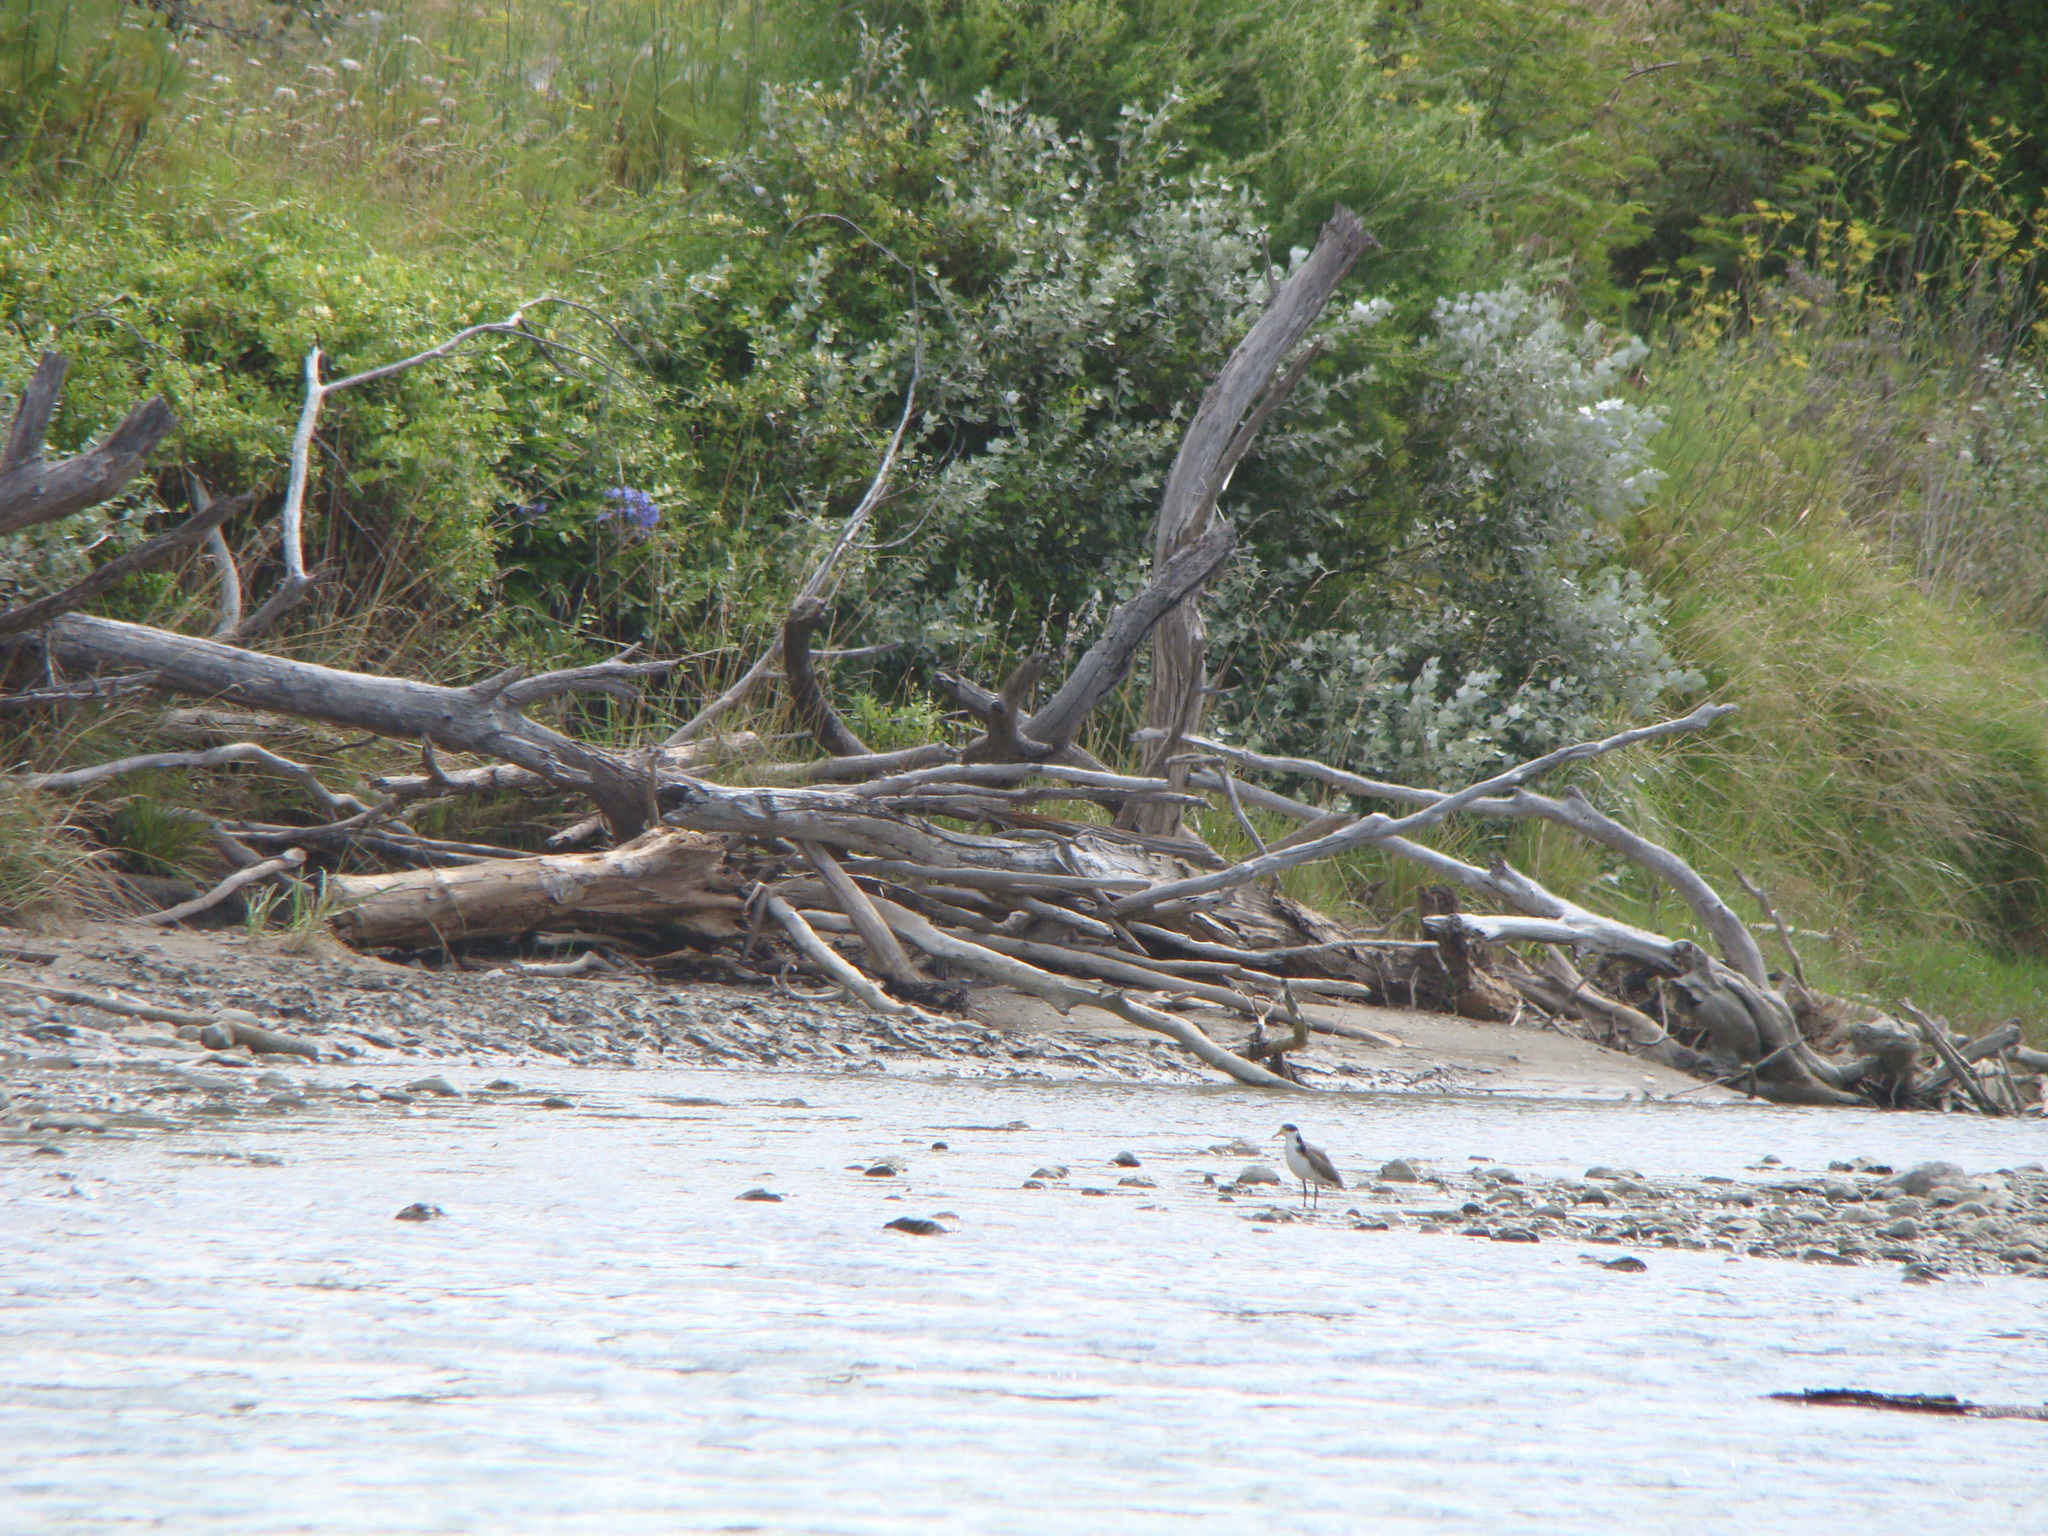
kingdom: Animalia
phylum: Chordata
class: Aves
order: Charadriiformes
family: Charadriidae
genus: Vanellus
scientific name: Vanellus miles
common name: Masked lapwing
